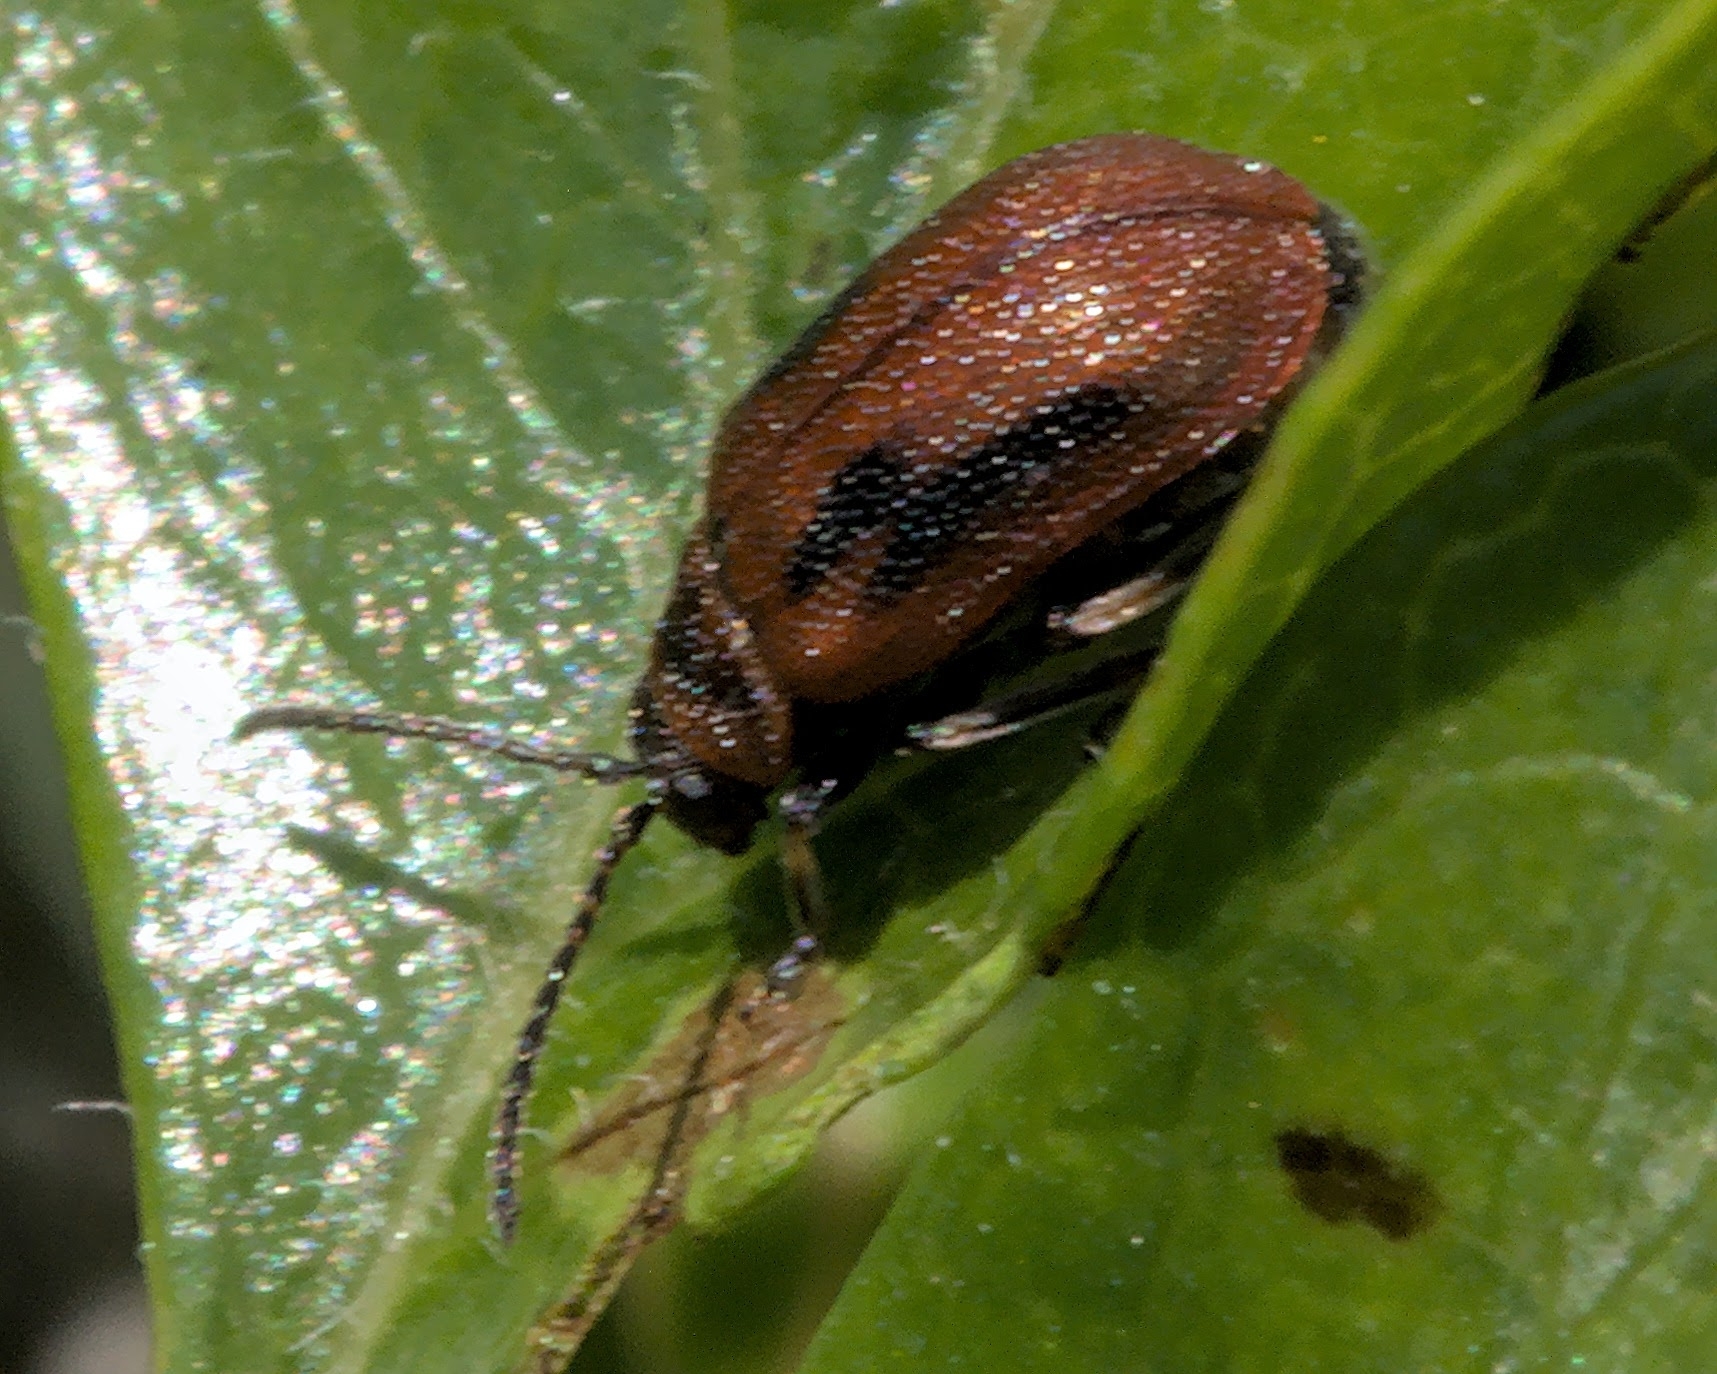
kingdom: Animalia
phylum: Arthropoda
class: Insecta
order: Coleoptera
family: Chrysomelidae
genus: Lochmaea
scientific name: Lochmaea crataegi
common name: Hawthorn leaf beetle
